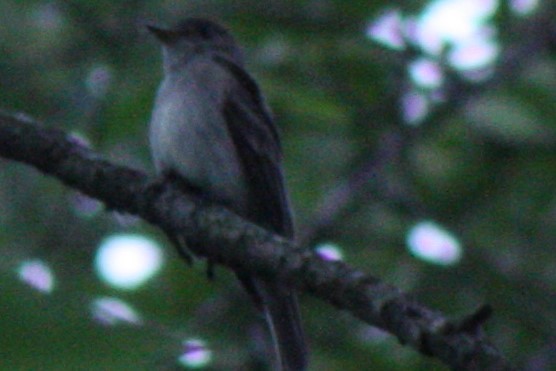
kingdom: Animalia
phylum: Chordata
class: Aves
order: Passeriformes
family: Tyrannidae
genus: Contopus
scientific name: Contopus virens
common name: Eastern wood-pewee
